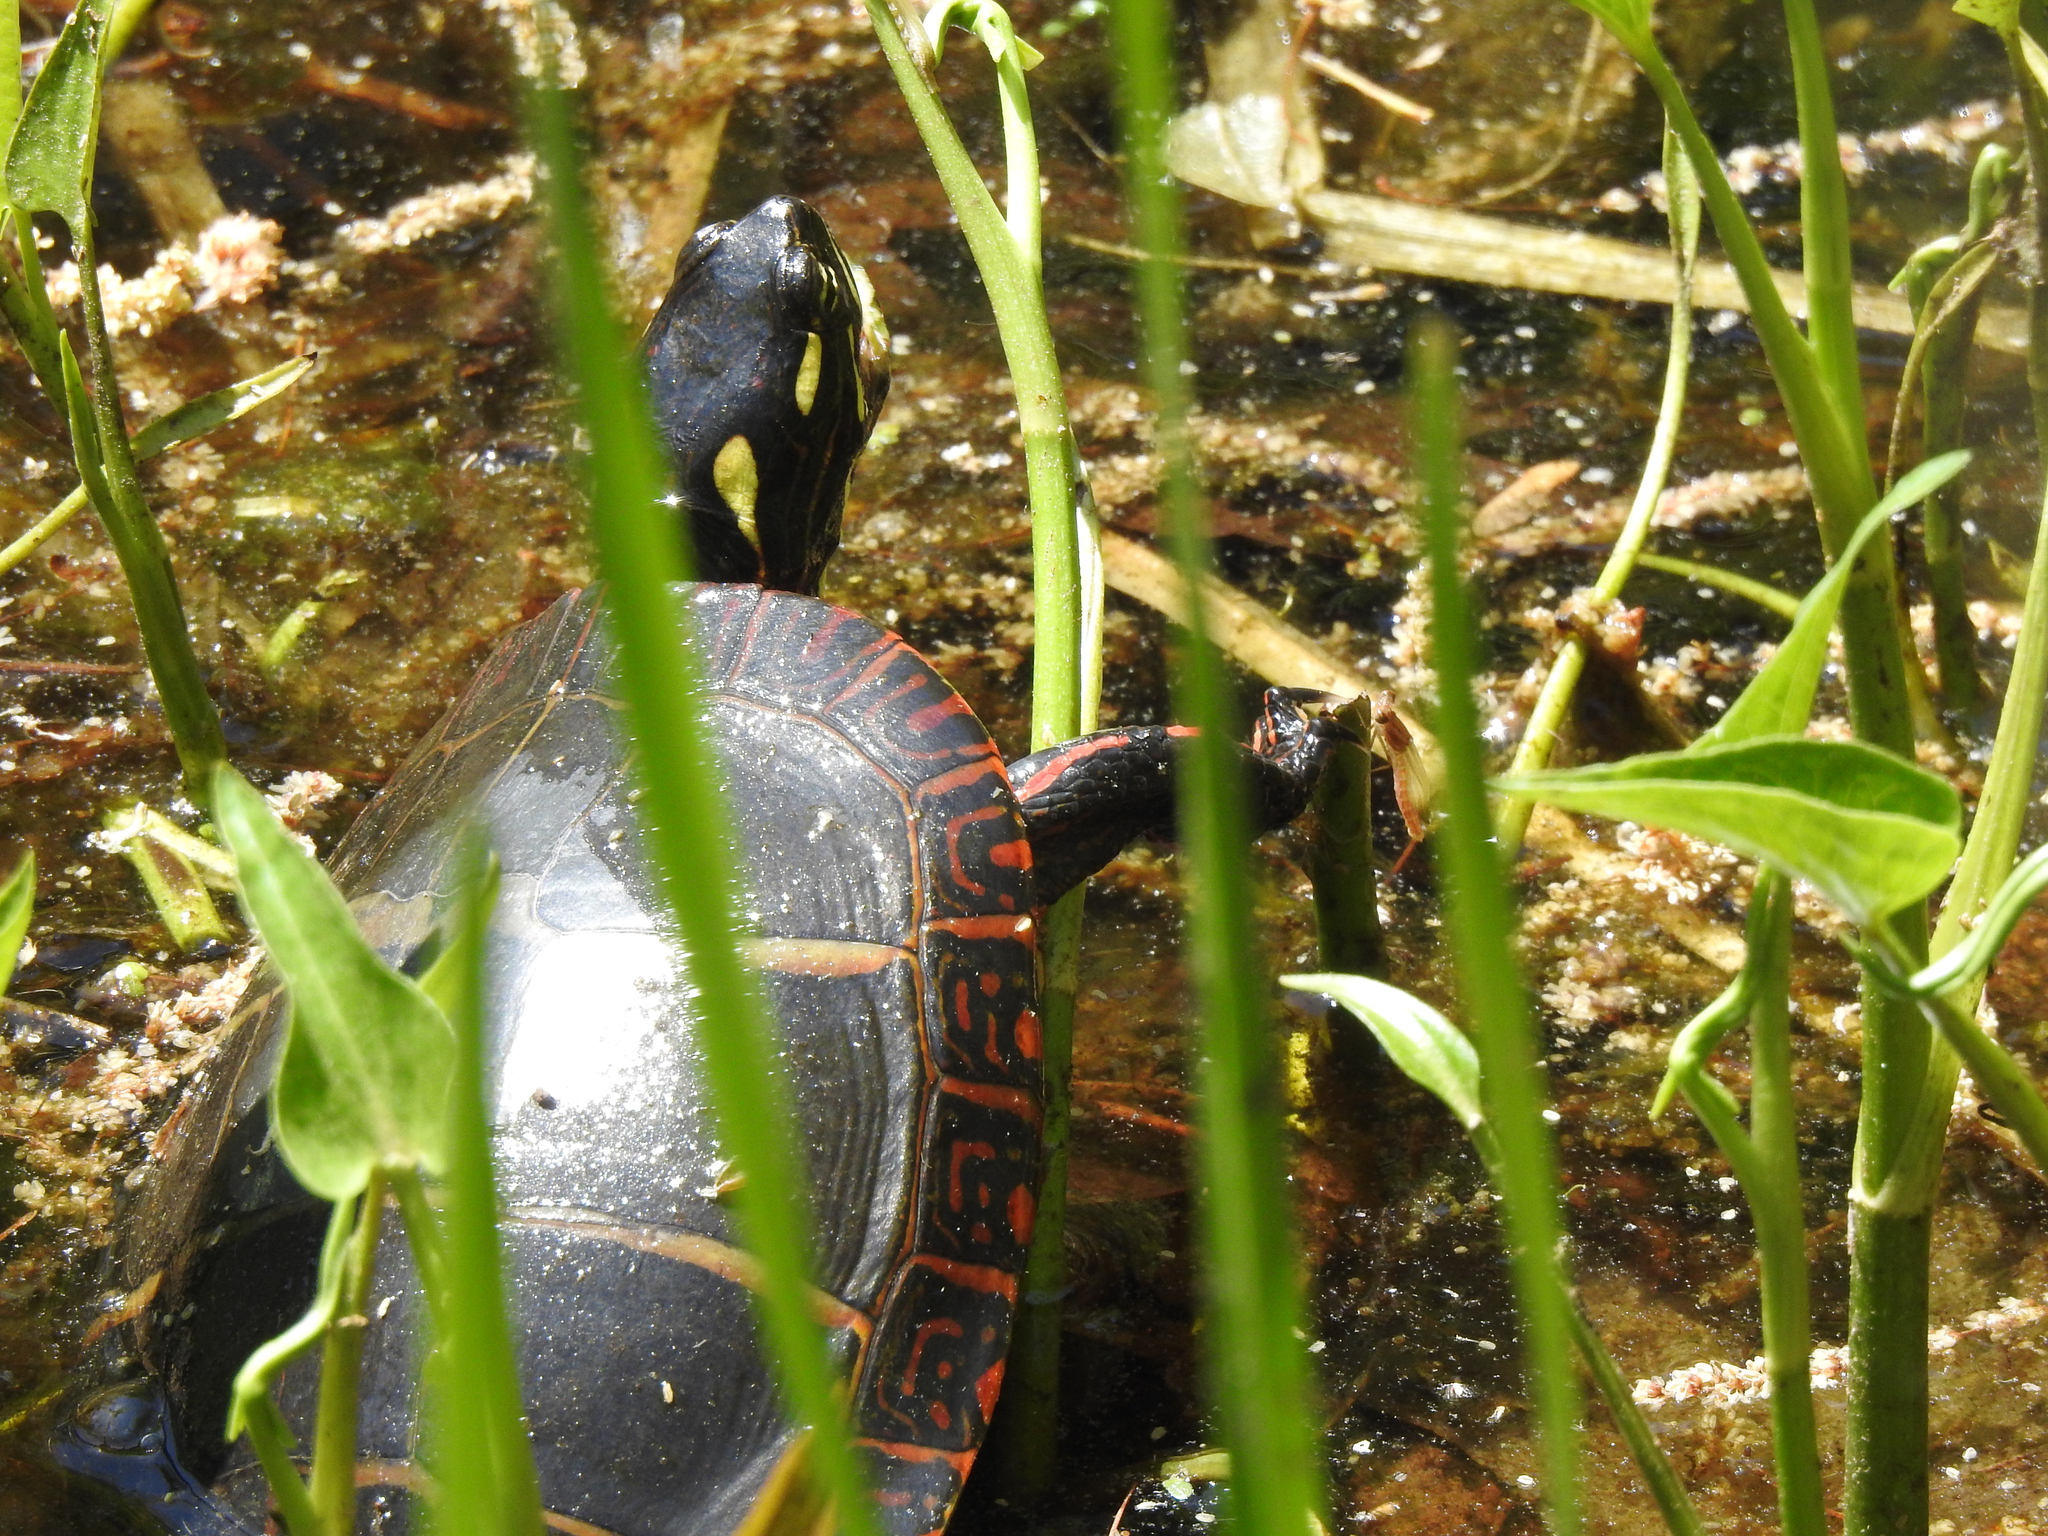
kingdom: Animalia
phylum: Chordata
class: Testudines
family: Emydidae
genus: Chrysemys
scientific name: Chrysemys picta
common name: Painted turtle
